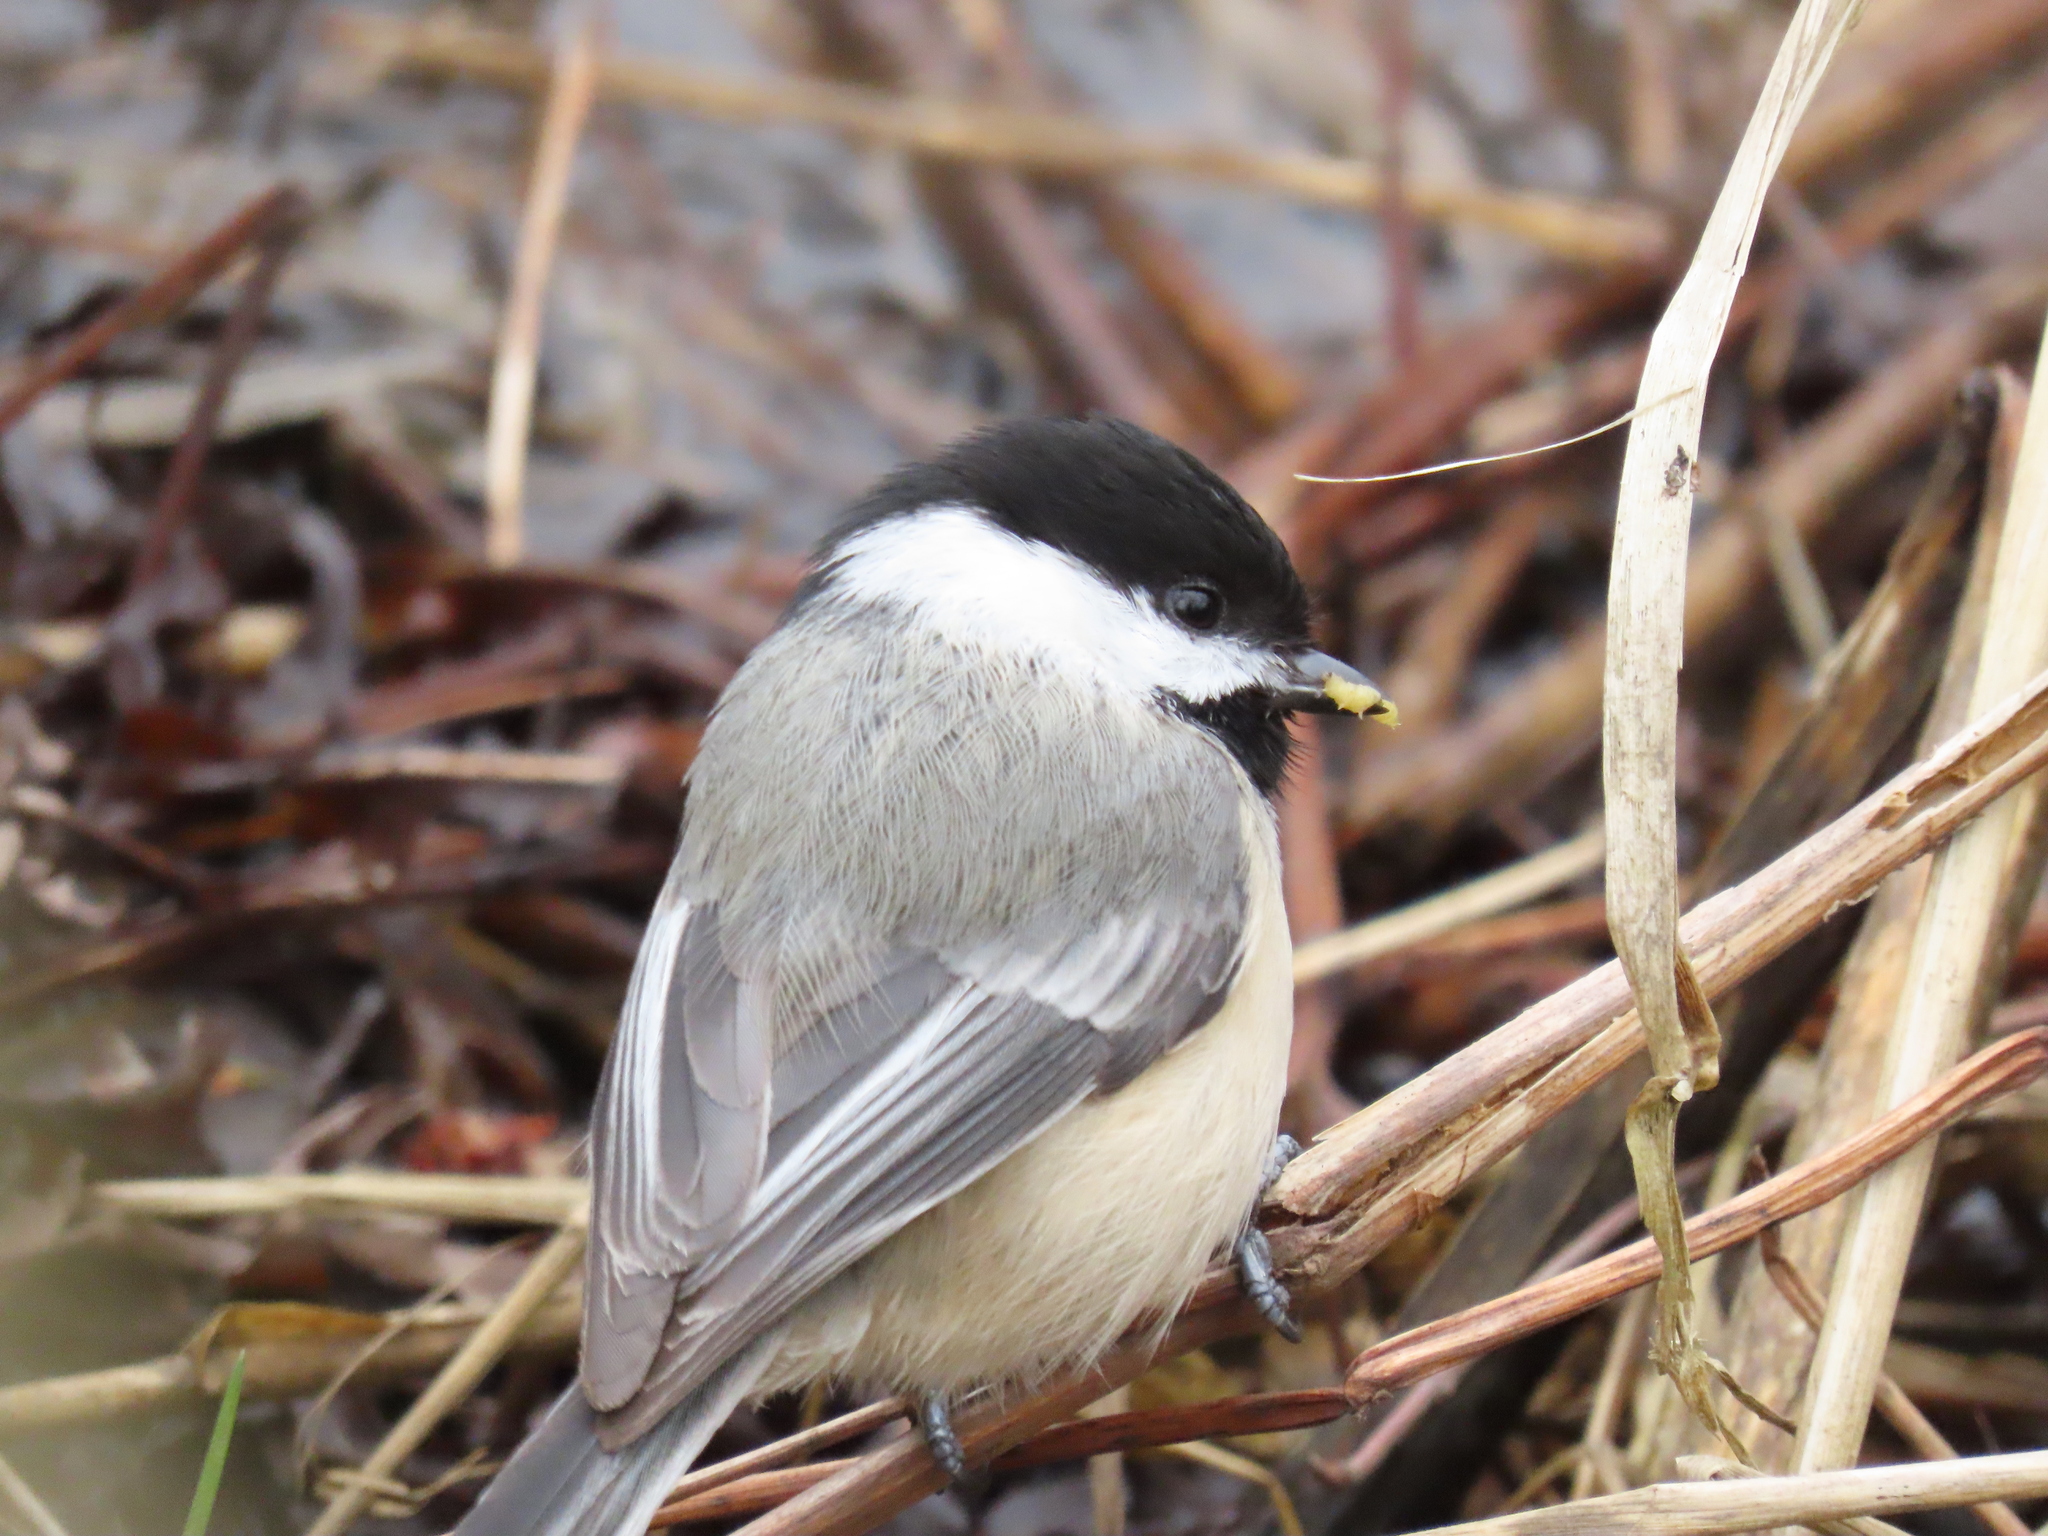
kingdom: Animalia
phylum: Chordata
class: Aves
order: Passeriformes
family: Paridae
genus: Poecile
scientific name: Poecile atricapillus
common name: Black-capped chickadee
